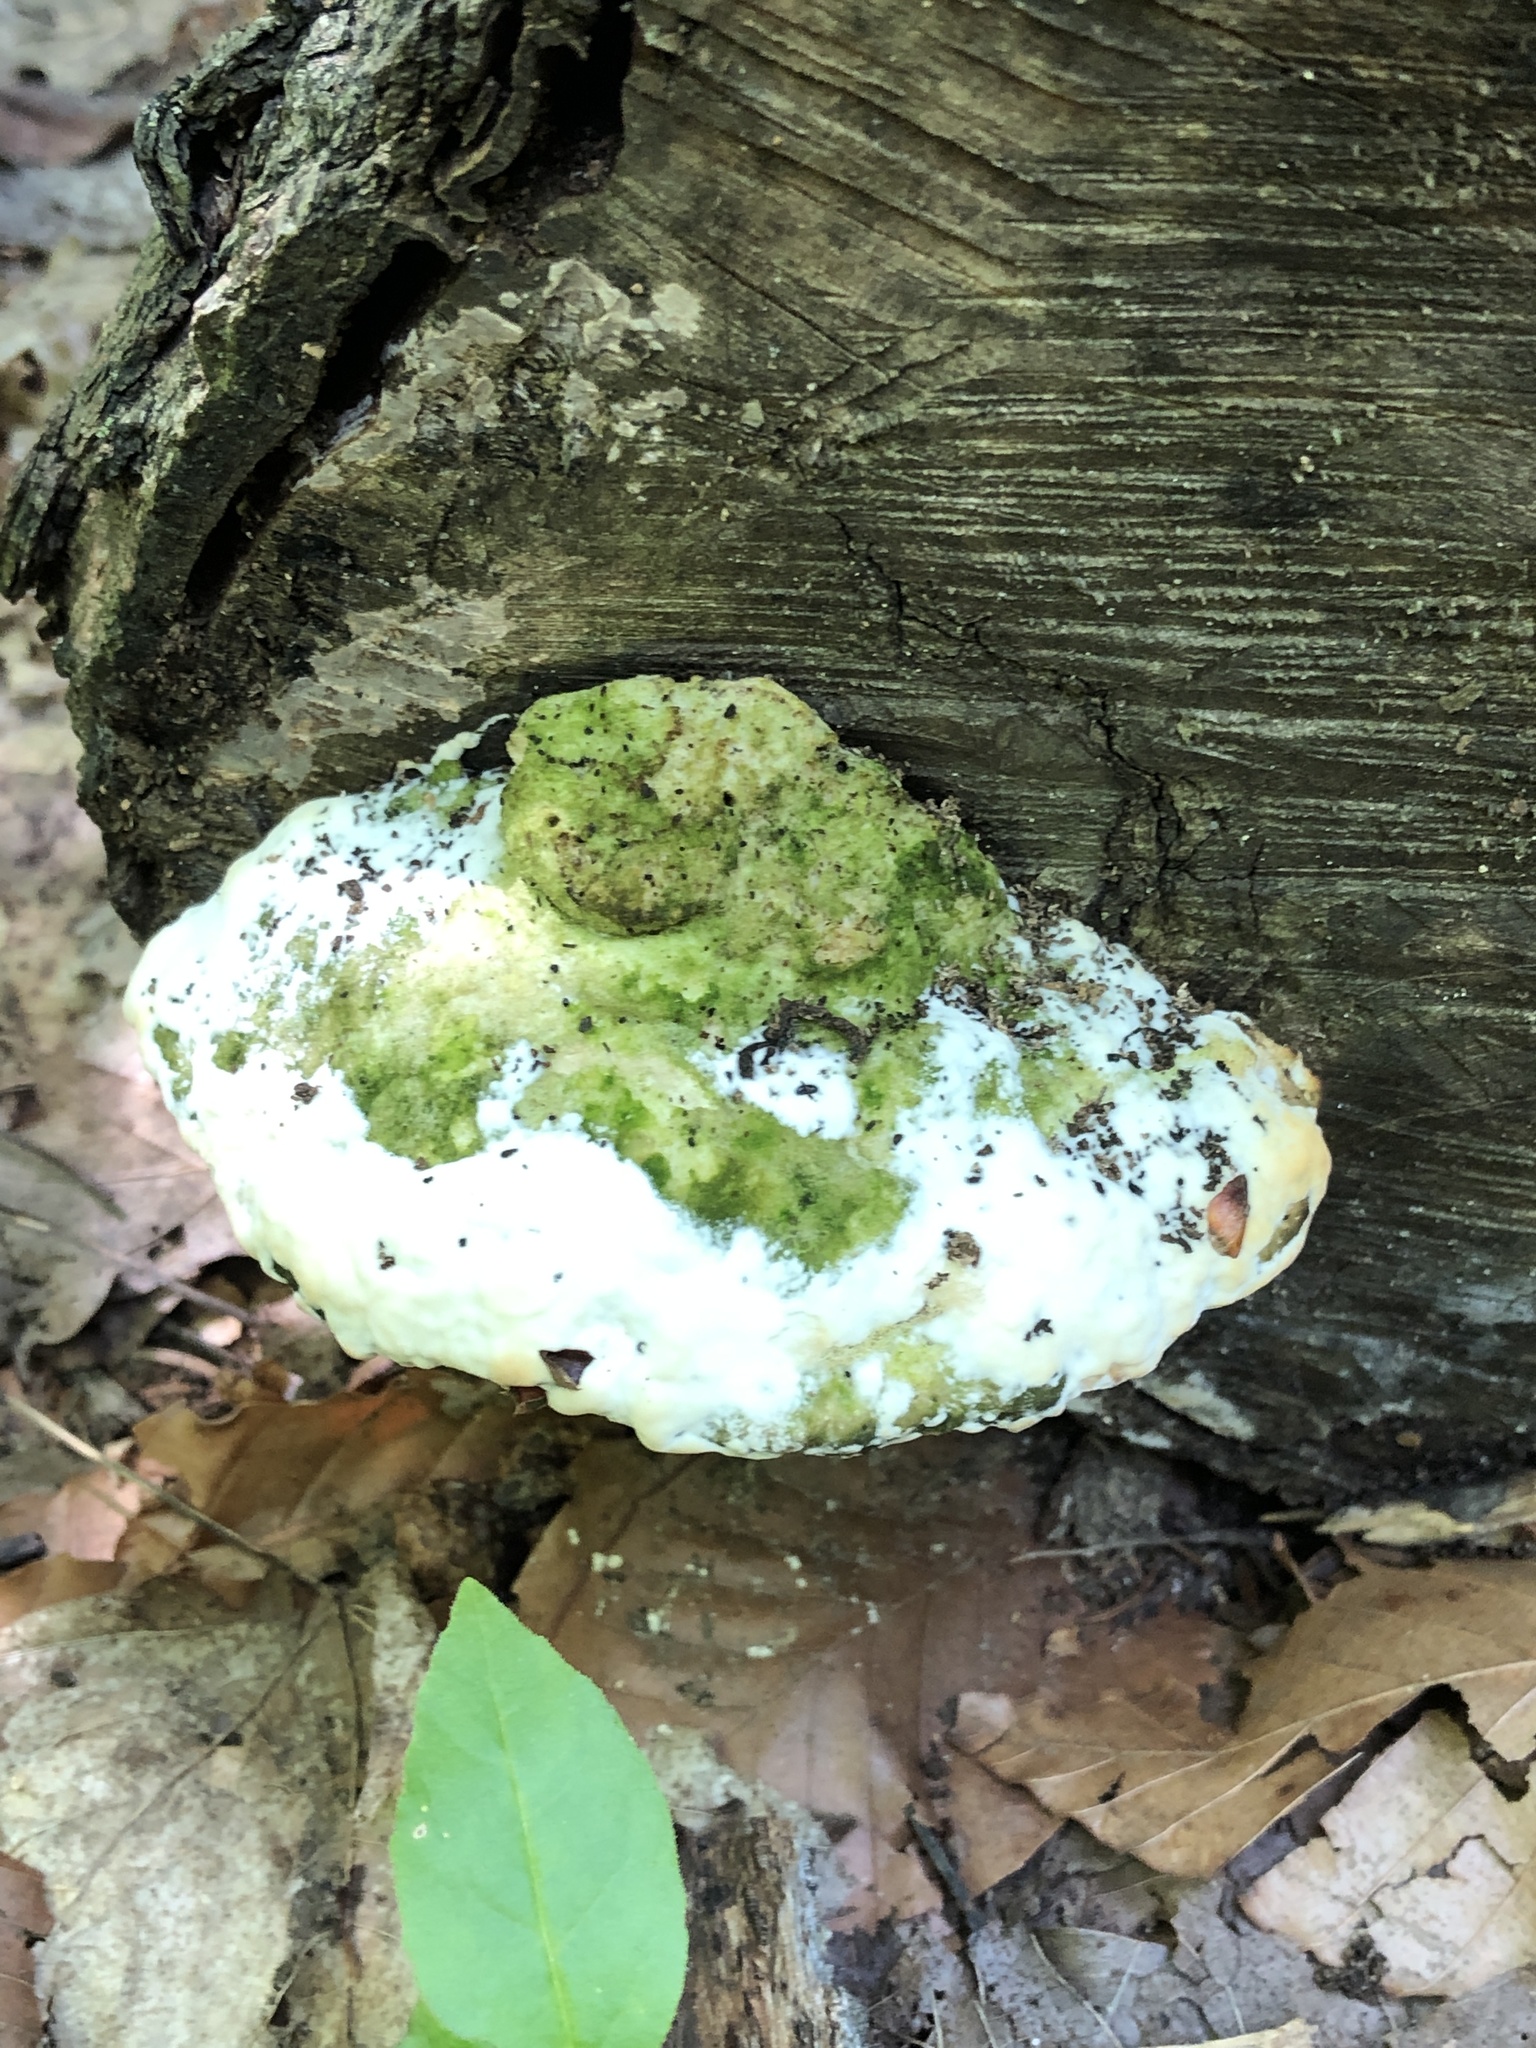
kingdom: Fungi
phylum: Basidiomycota
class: Agaricomycetes
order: Hymenochaetales
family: Oxyporaceae
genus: Oxyporus
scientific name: Oxyporus populinus
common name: Poplar bracket
